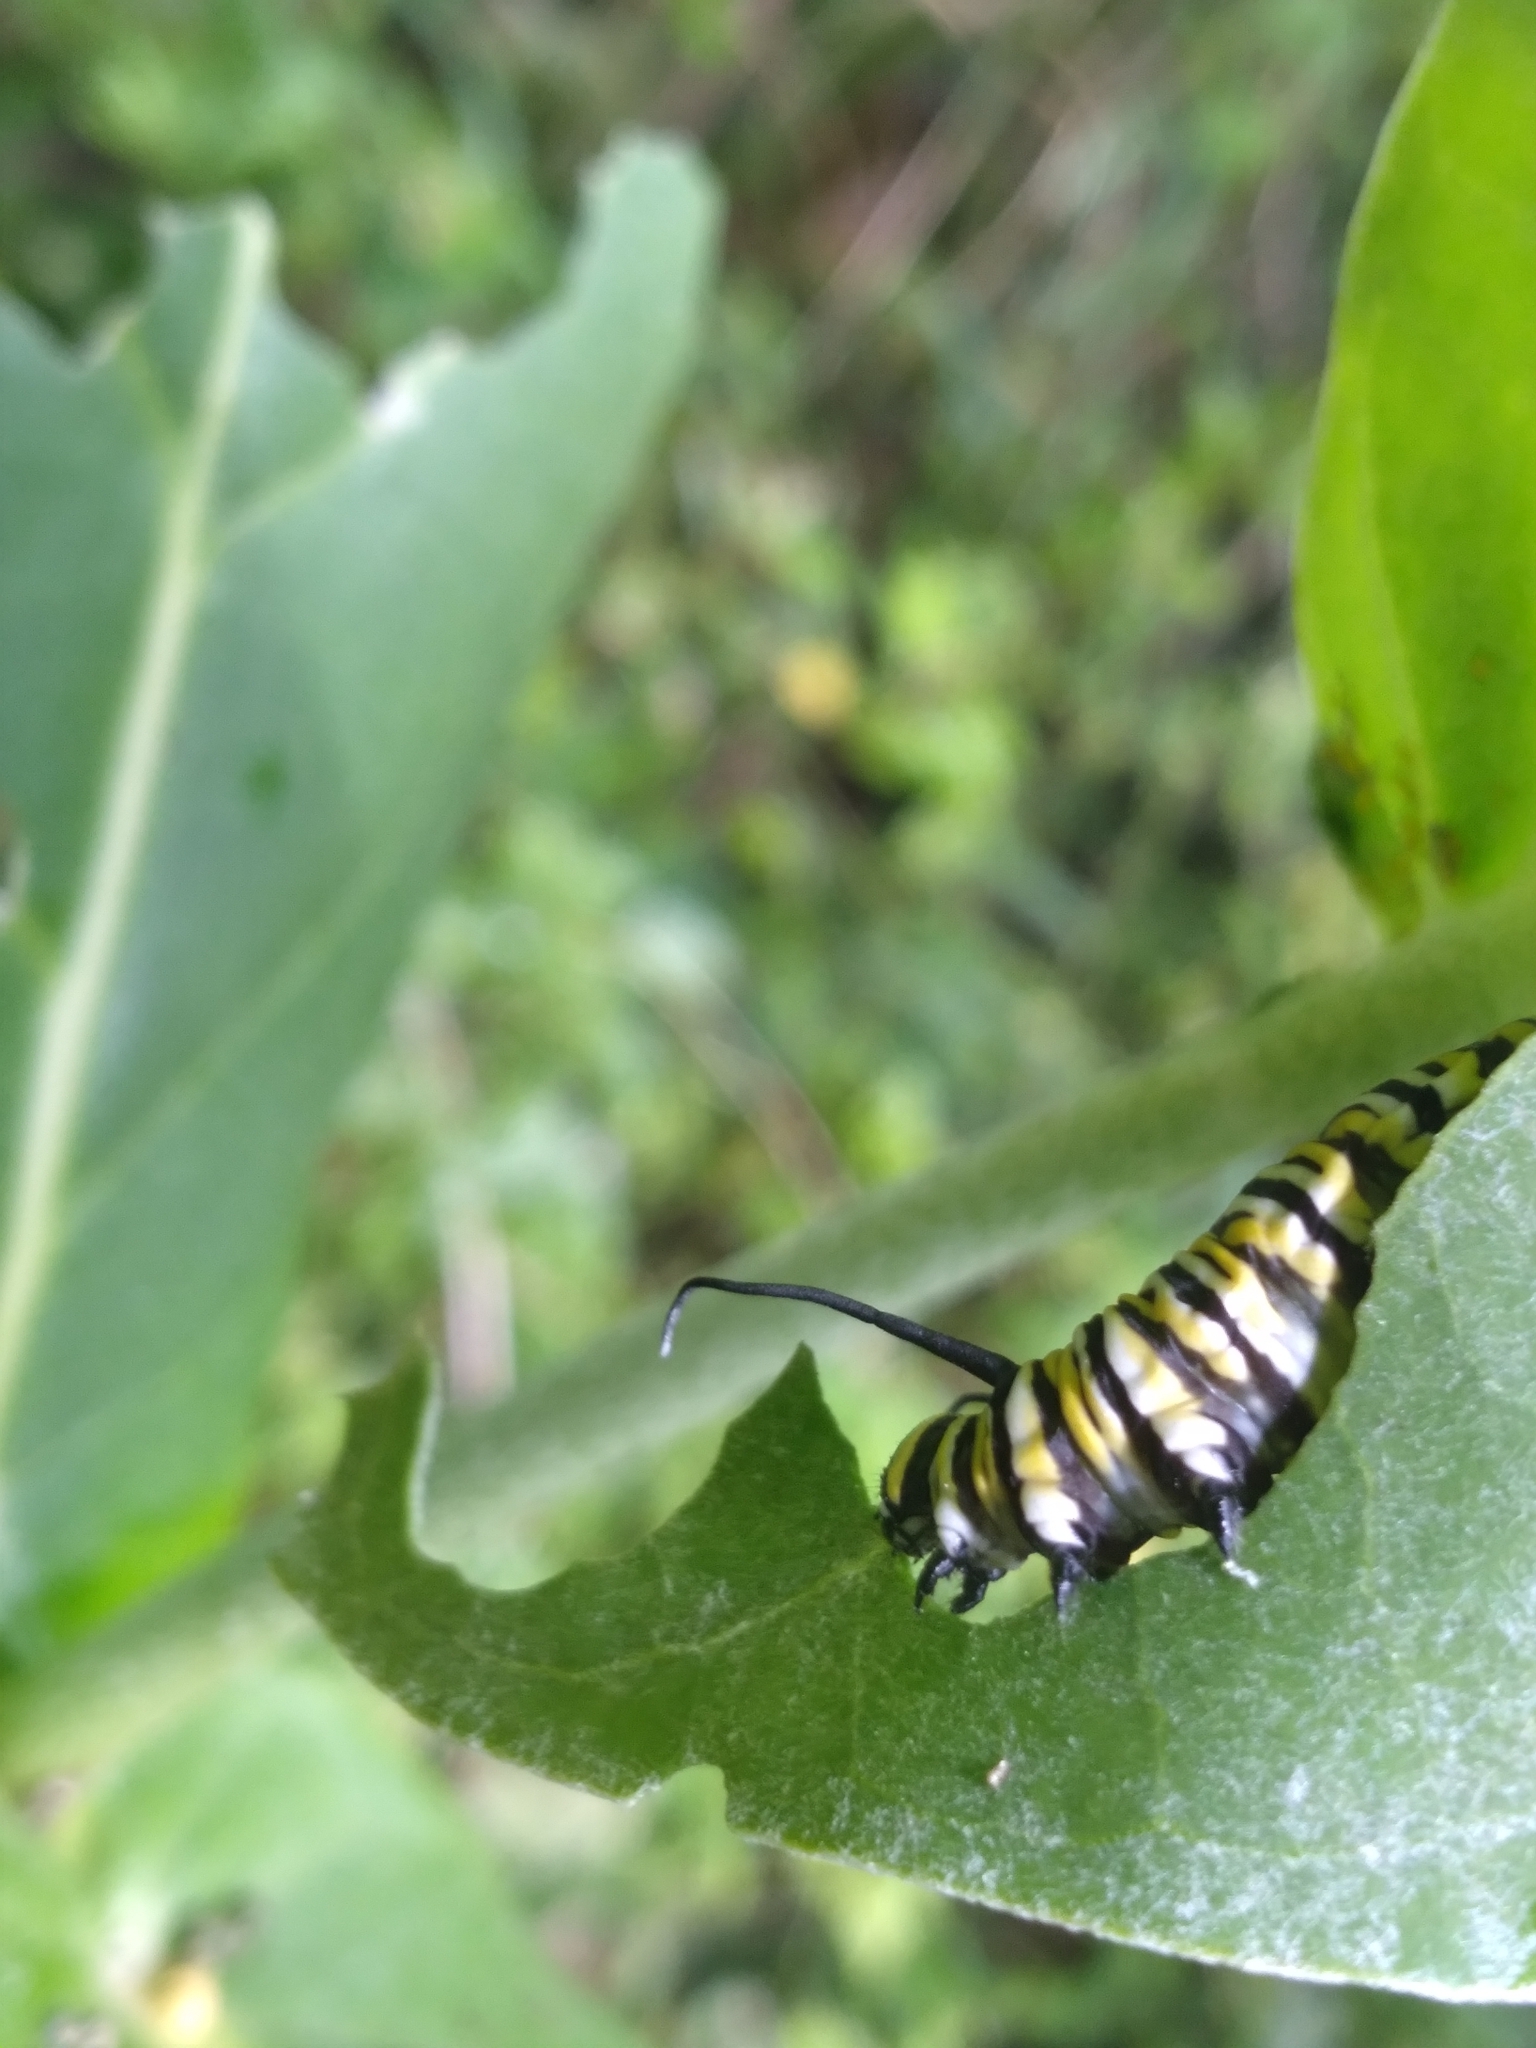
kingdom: Animalia
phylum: Arthropoda
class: Insecta
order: Lepidoptera
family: Nymphalidae
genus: Danaus
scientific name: Danaus plexippus
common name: Monarch
